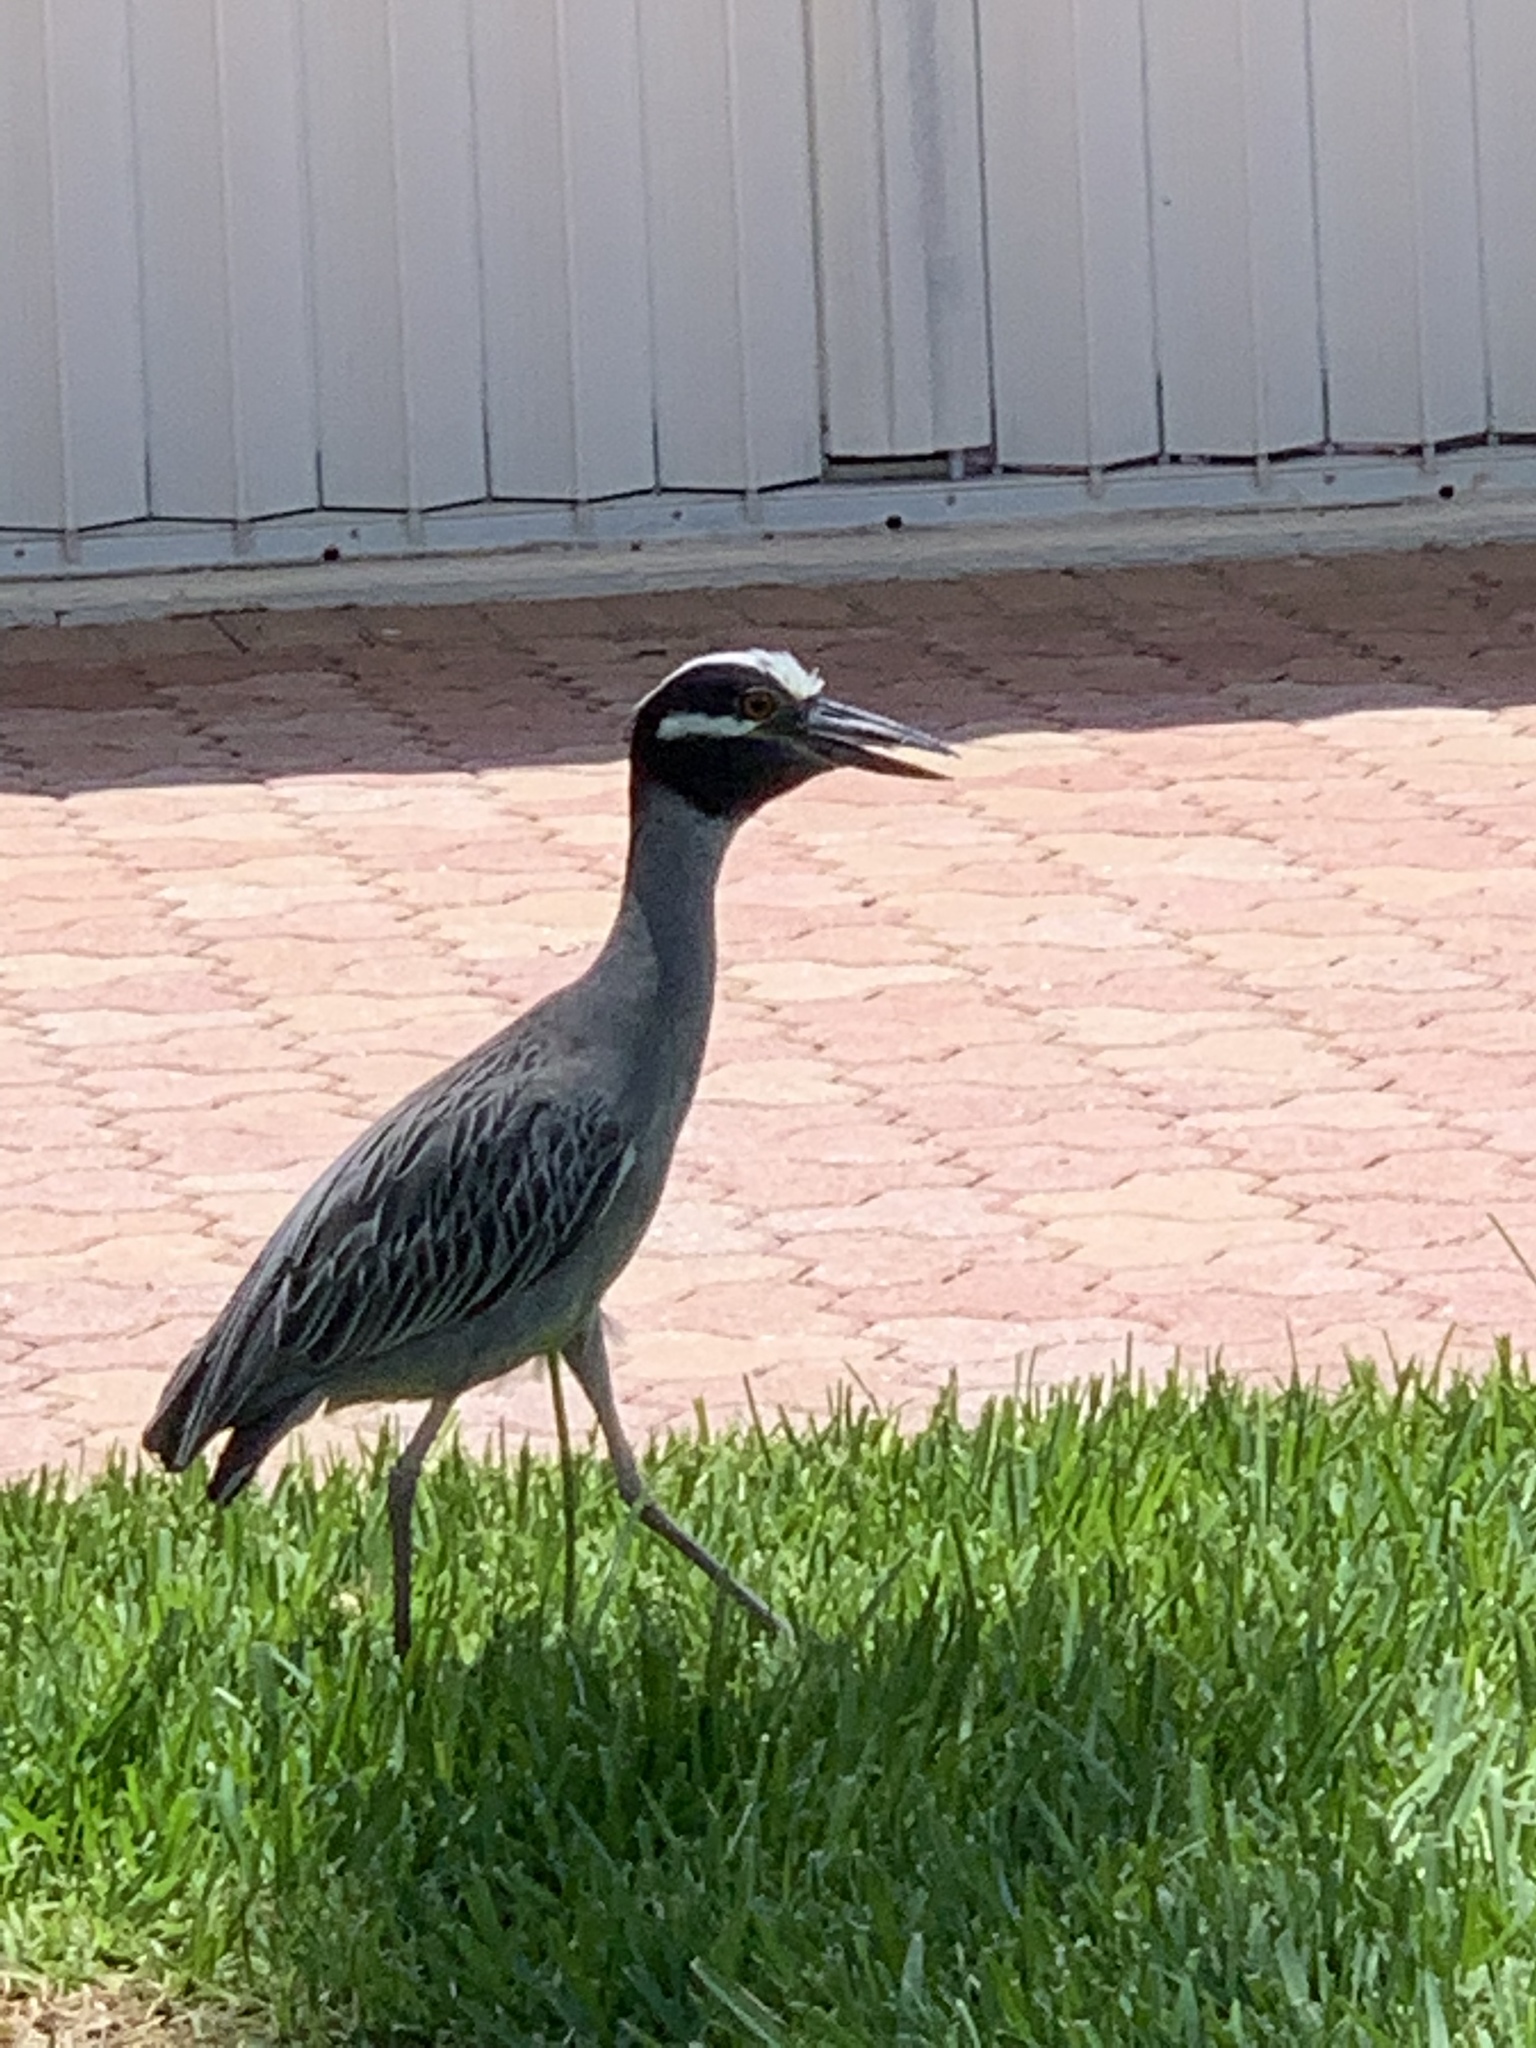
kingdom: Animalia
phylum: Chordata
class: Aves
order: Pelecaniformes
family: Ardeidae
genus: Nyctanassa
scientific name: Nyctanassa violacea
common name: Yellow-crowned night heron
